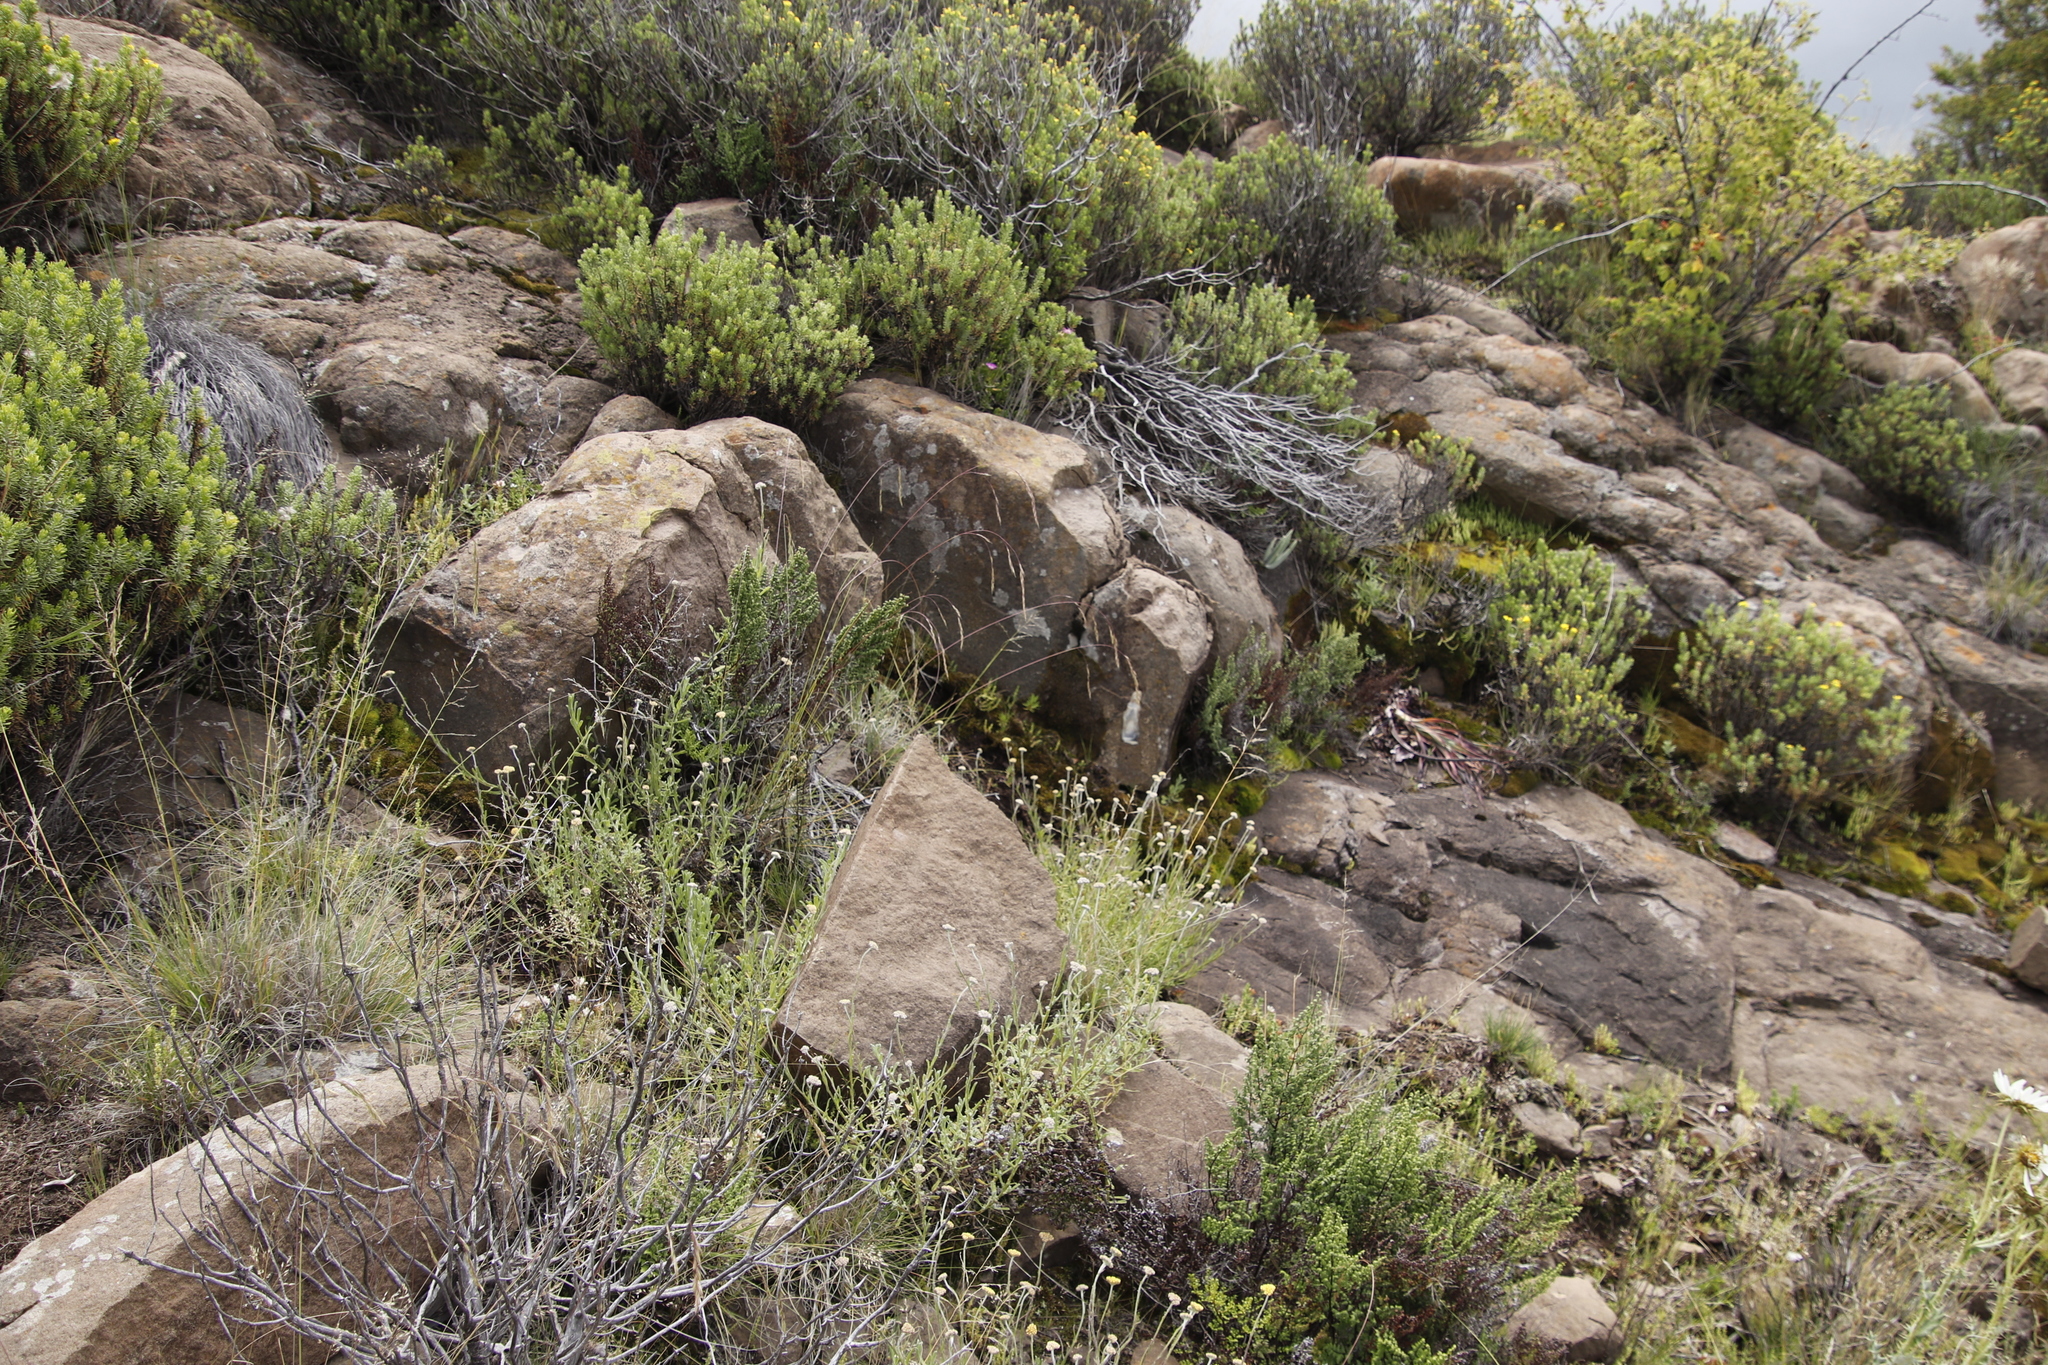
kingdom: Plantae
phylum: Tracheophyta
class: Polypodiopsida
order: Polypodiales
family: Pteridaceae
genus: Cheilanthes
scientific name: Cheilanthes quadripinnata
